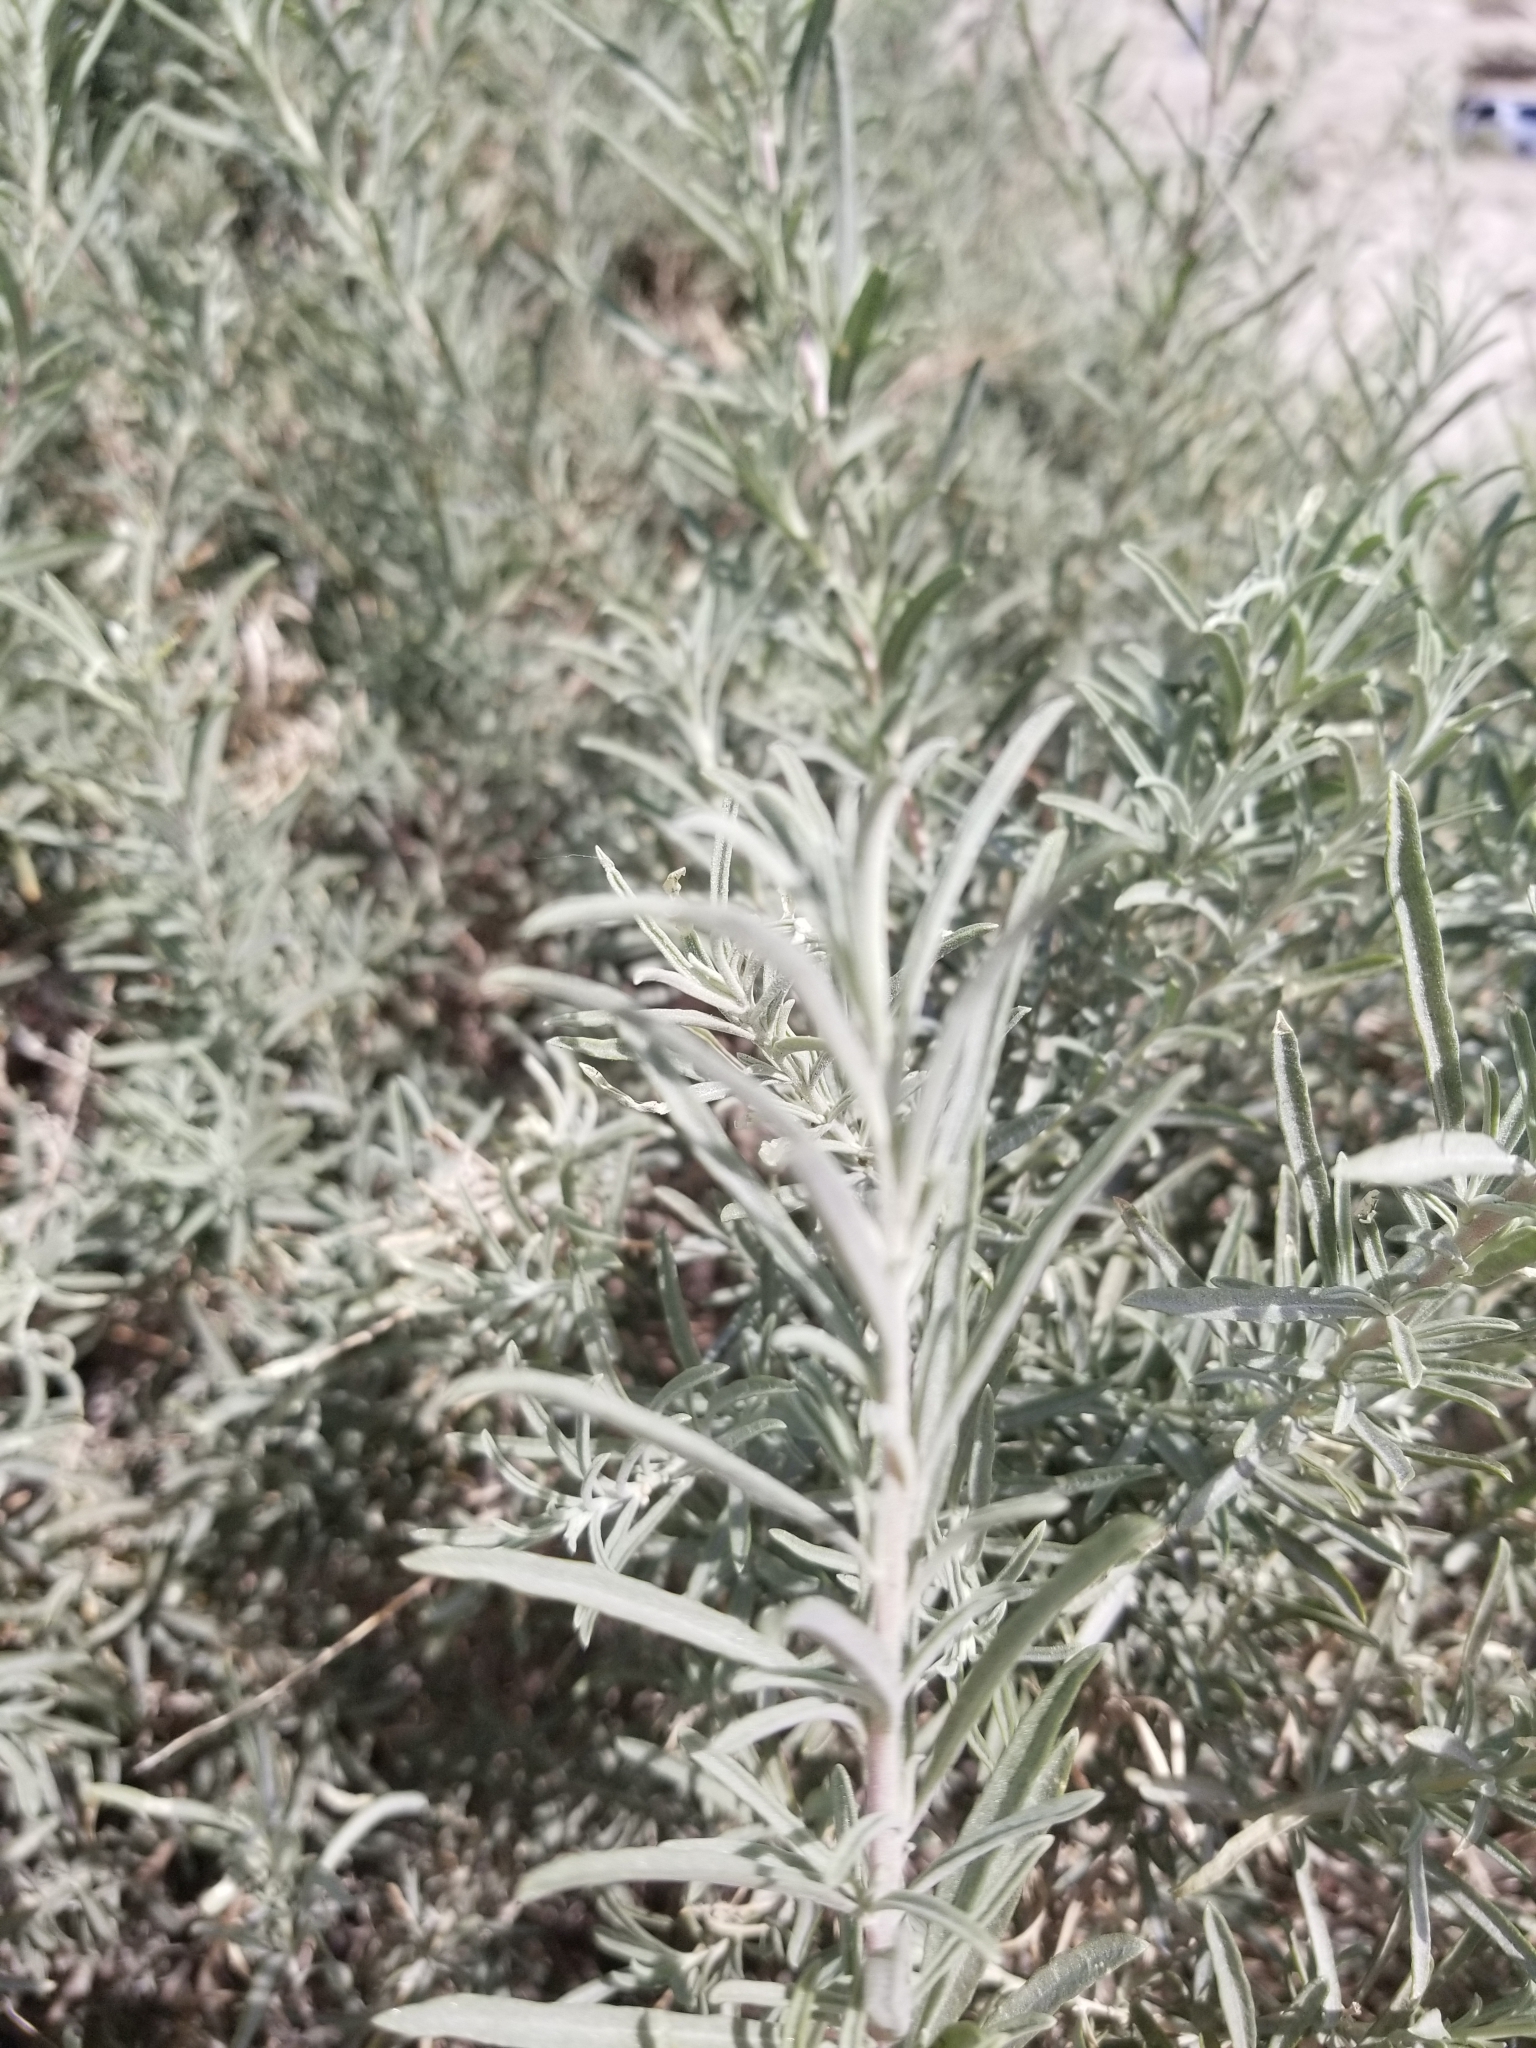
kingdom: Plantae
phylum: Tracheophyta
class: Magnoliopsida
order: Asterales
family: Asteraceae
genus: Artemisia
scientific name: Artemisia ludoviciana
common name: Western mugwort
